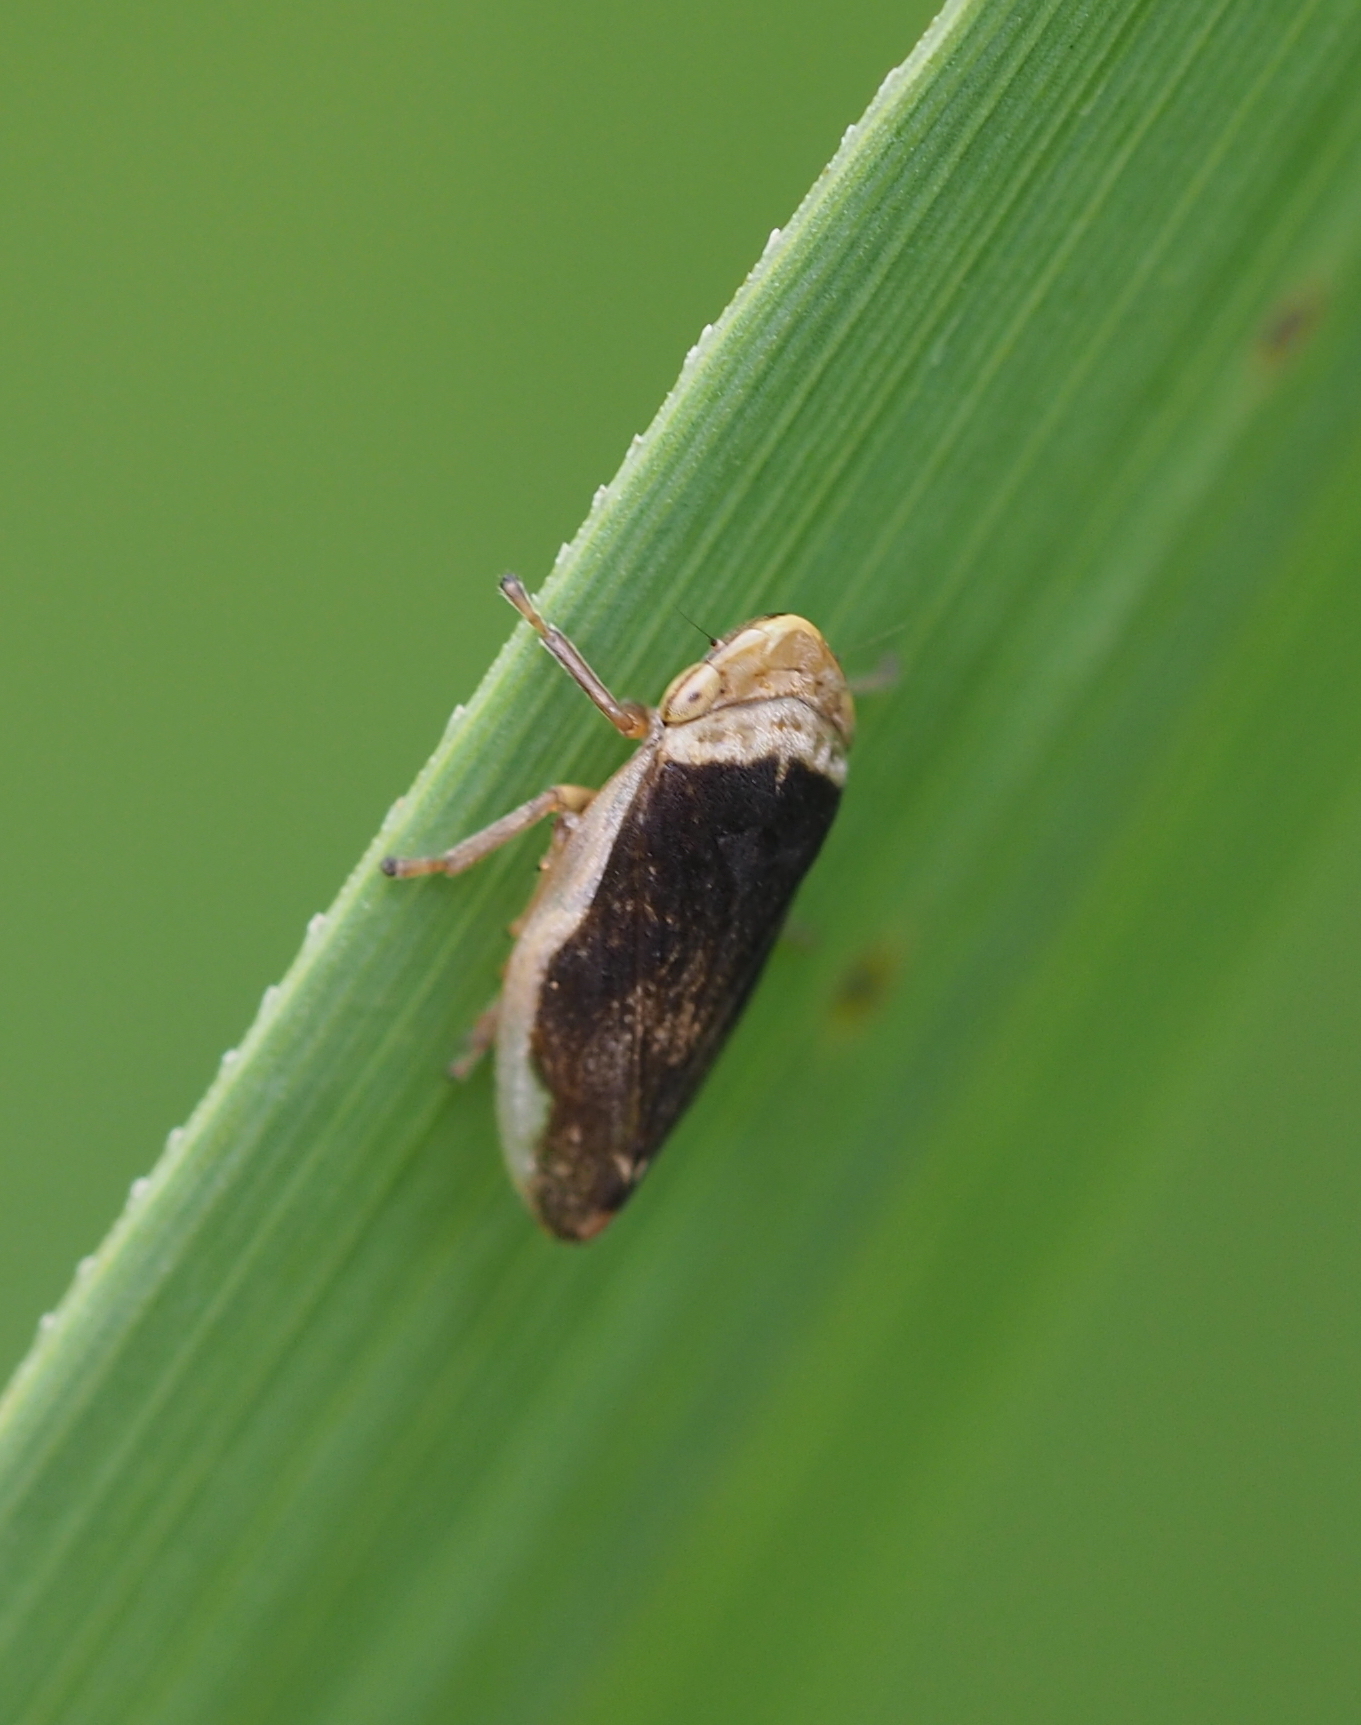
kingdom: Animalia
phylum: Arthropoda
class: Insecta
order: Hemiptera
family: Aphrophoridae
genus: Philaenus
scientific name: Philaenus spumarius
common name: Meadow spittlebug
